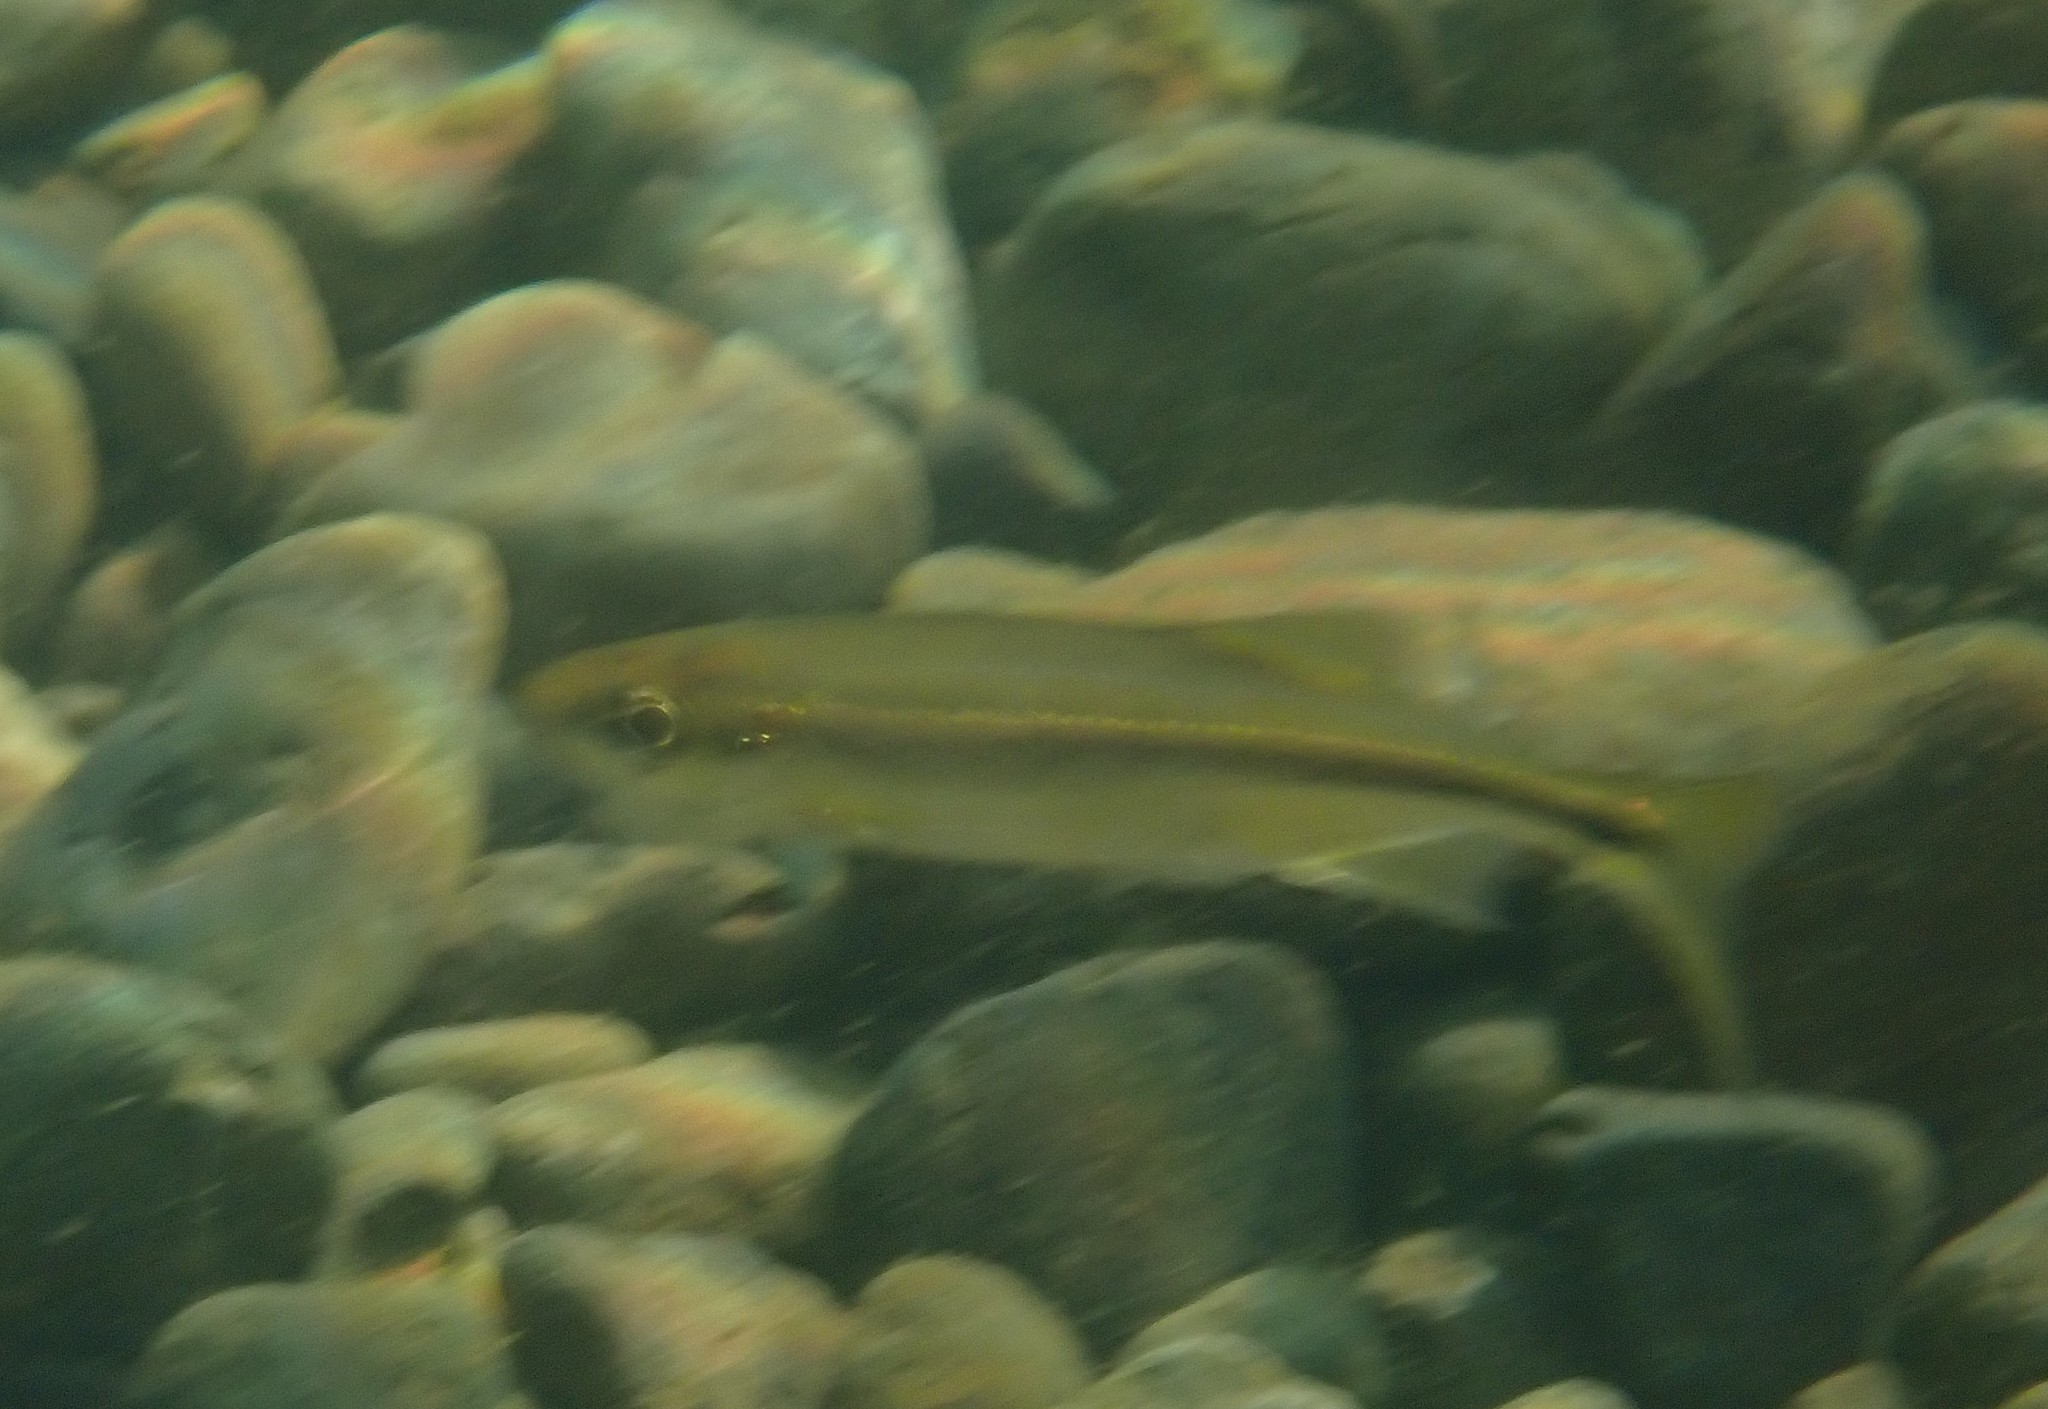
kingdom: Animalia
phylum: Chordata
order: Cypriniformes
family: Cyprinidae
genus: Richardsonius
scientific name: Richardsonius balteatus
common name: Redside shiner
